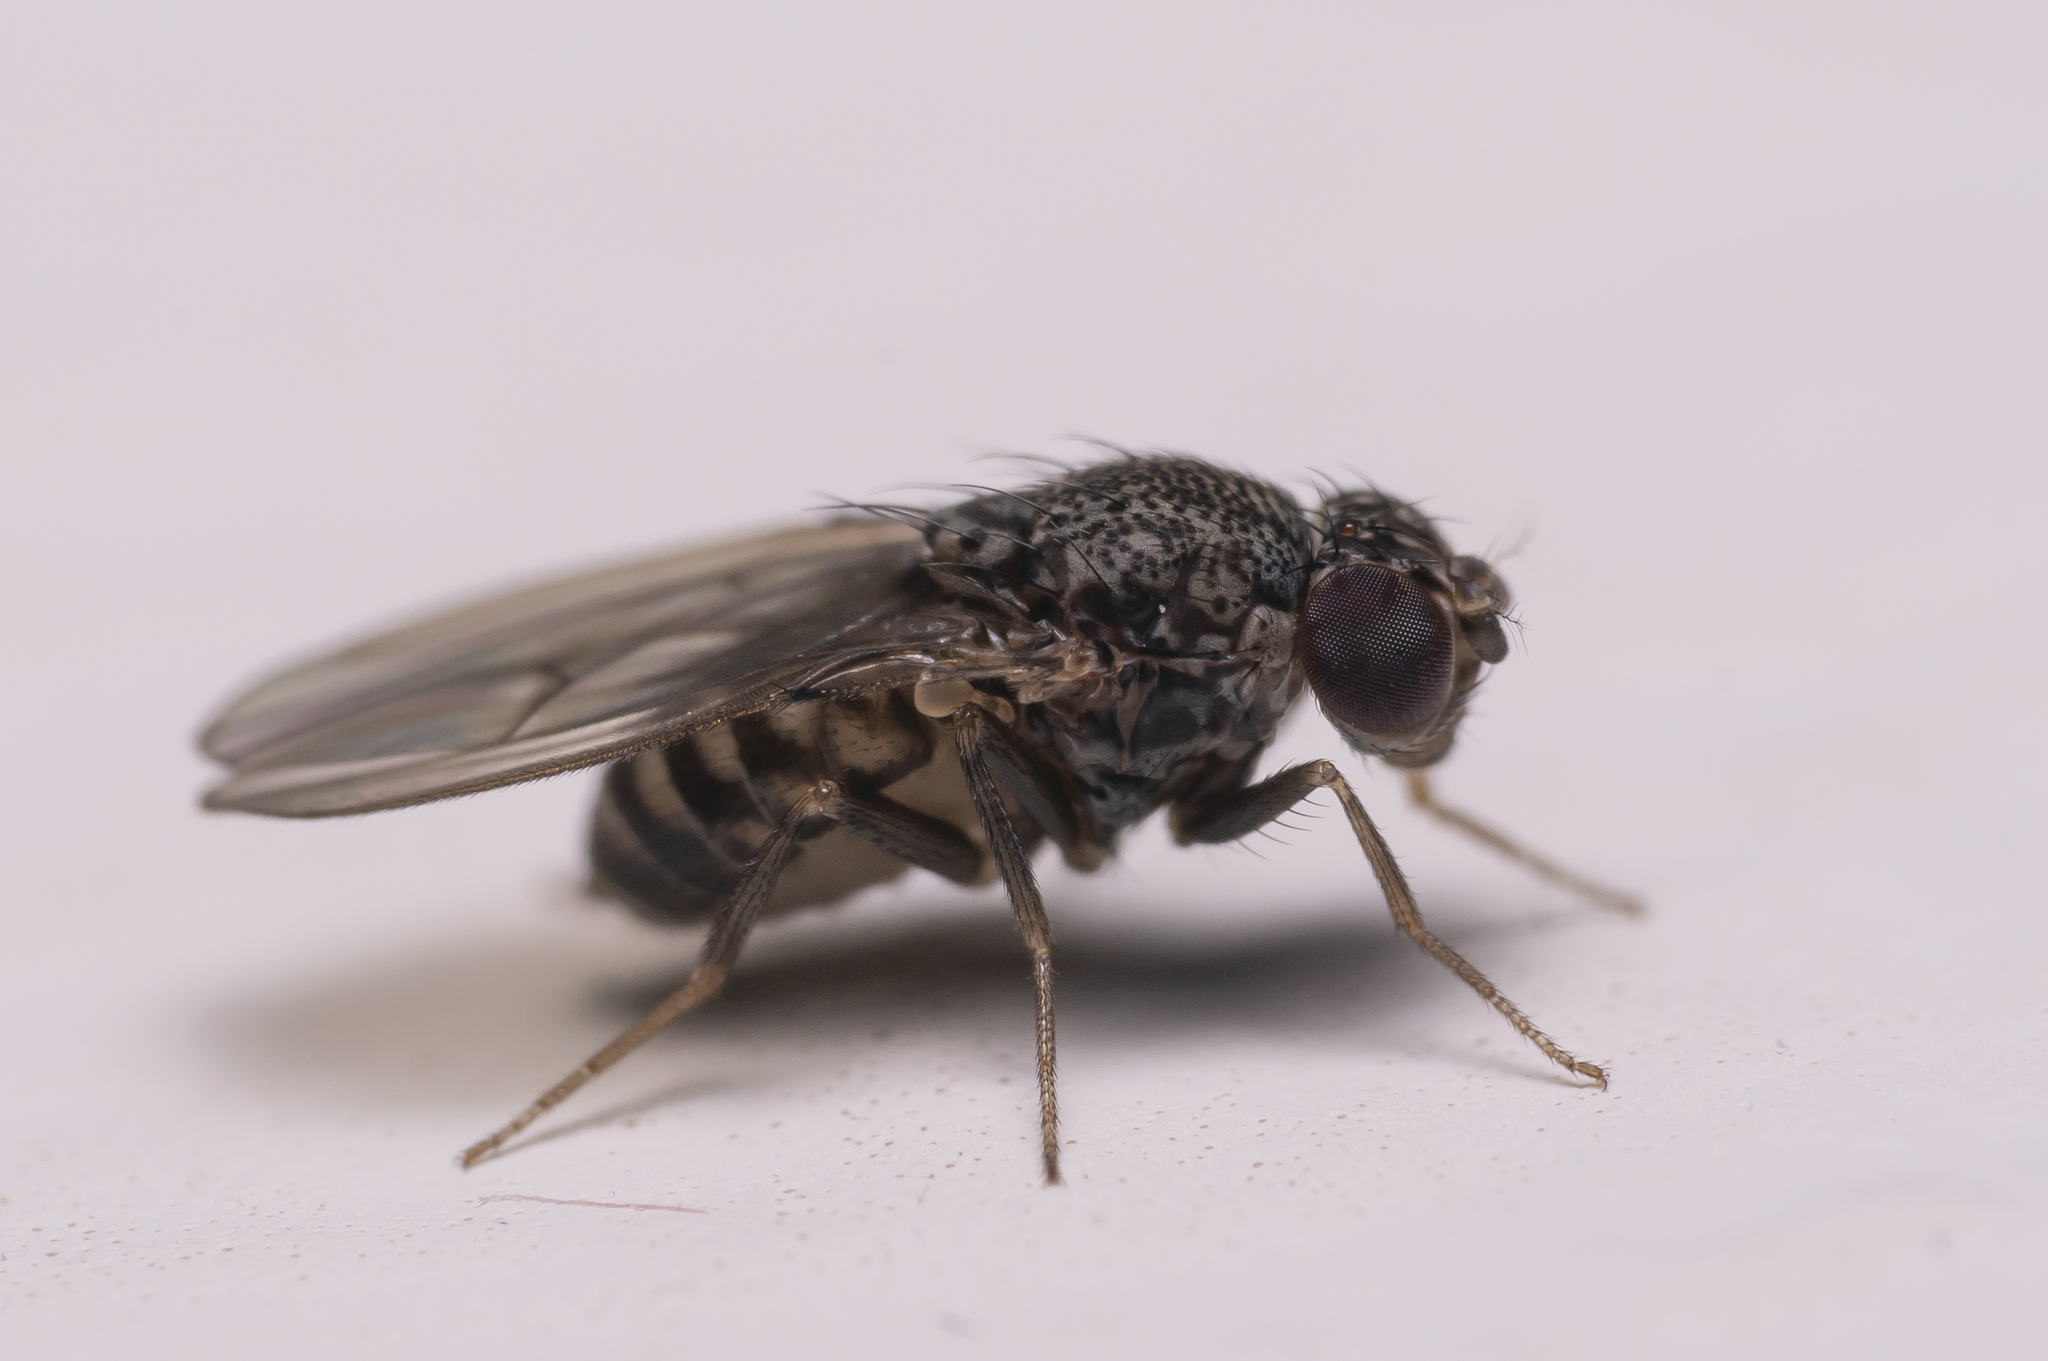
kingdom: Animalia
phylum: Arthropoda
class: Insecta
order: Diptera
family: Drosophilidae
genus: Drosophila
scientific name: Drosophila repleta
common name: Pomace fly
